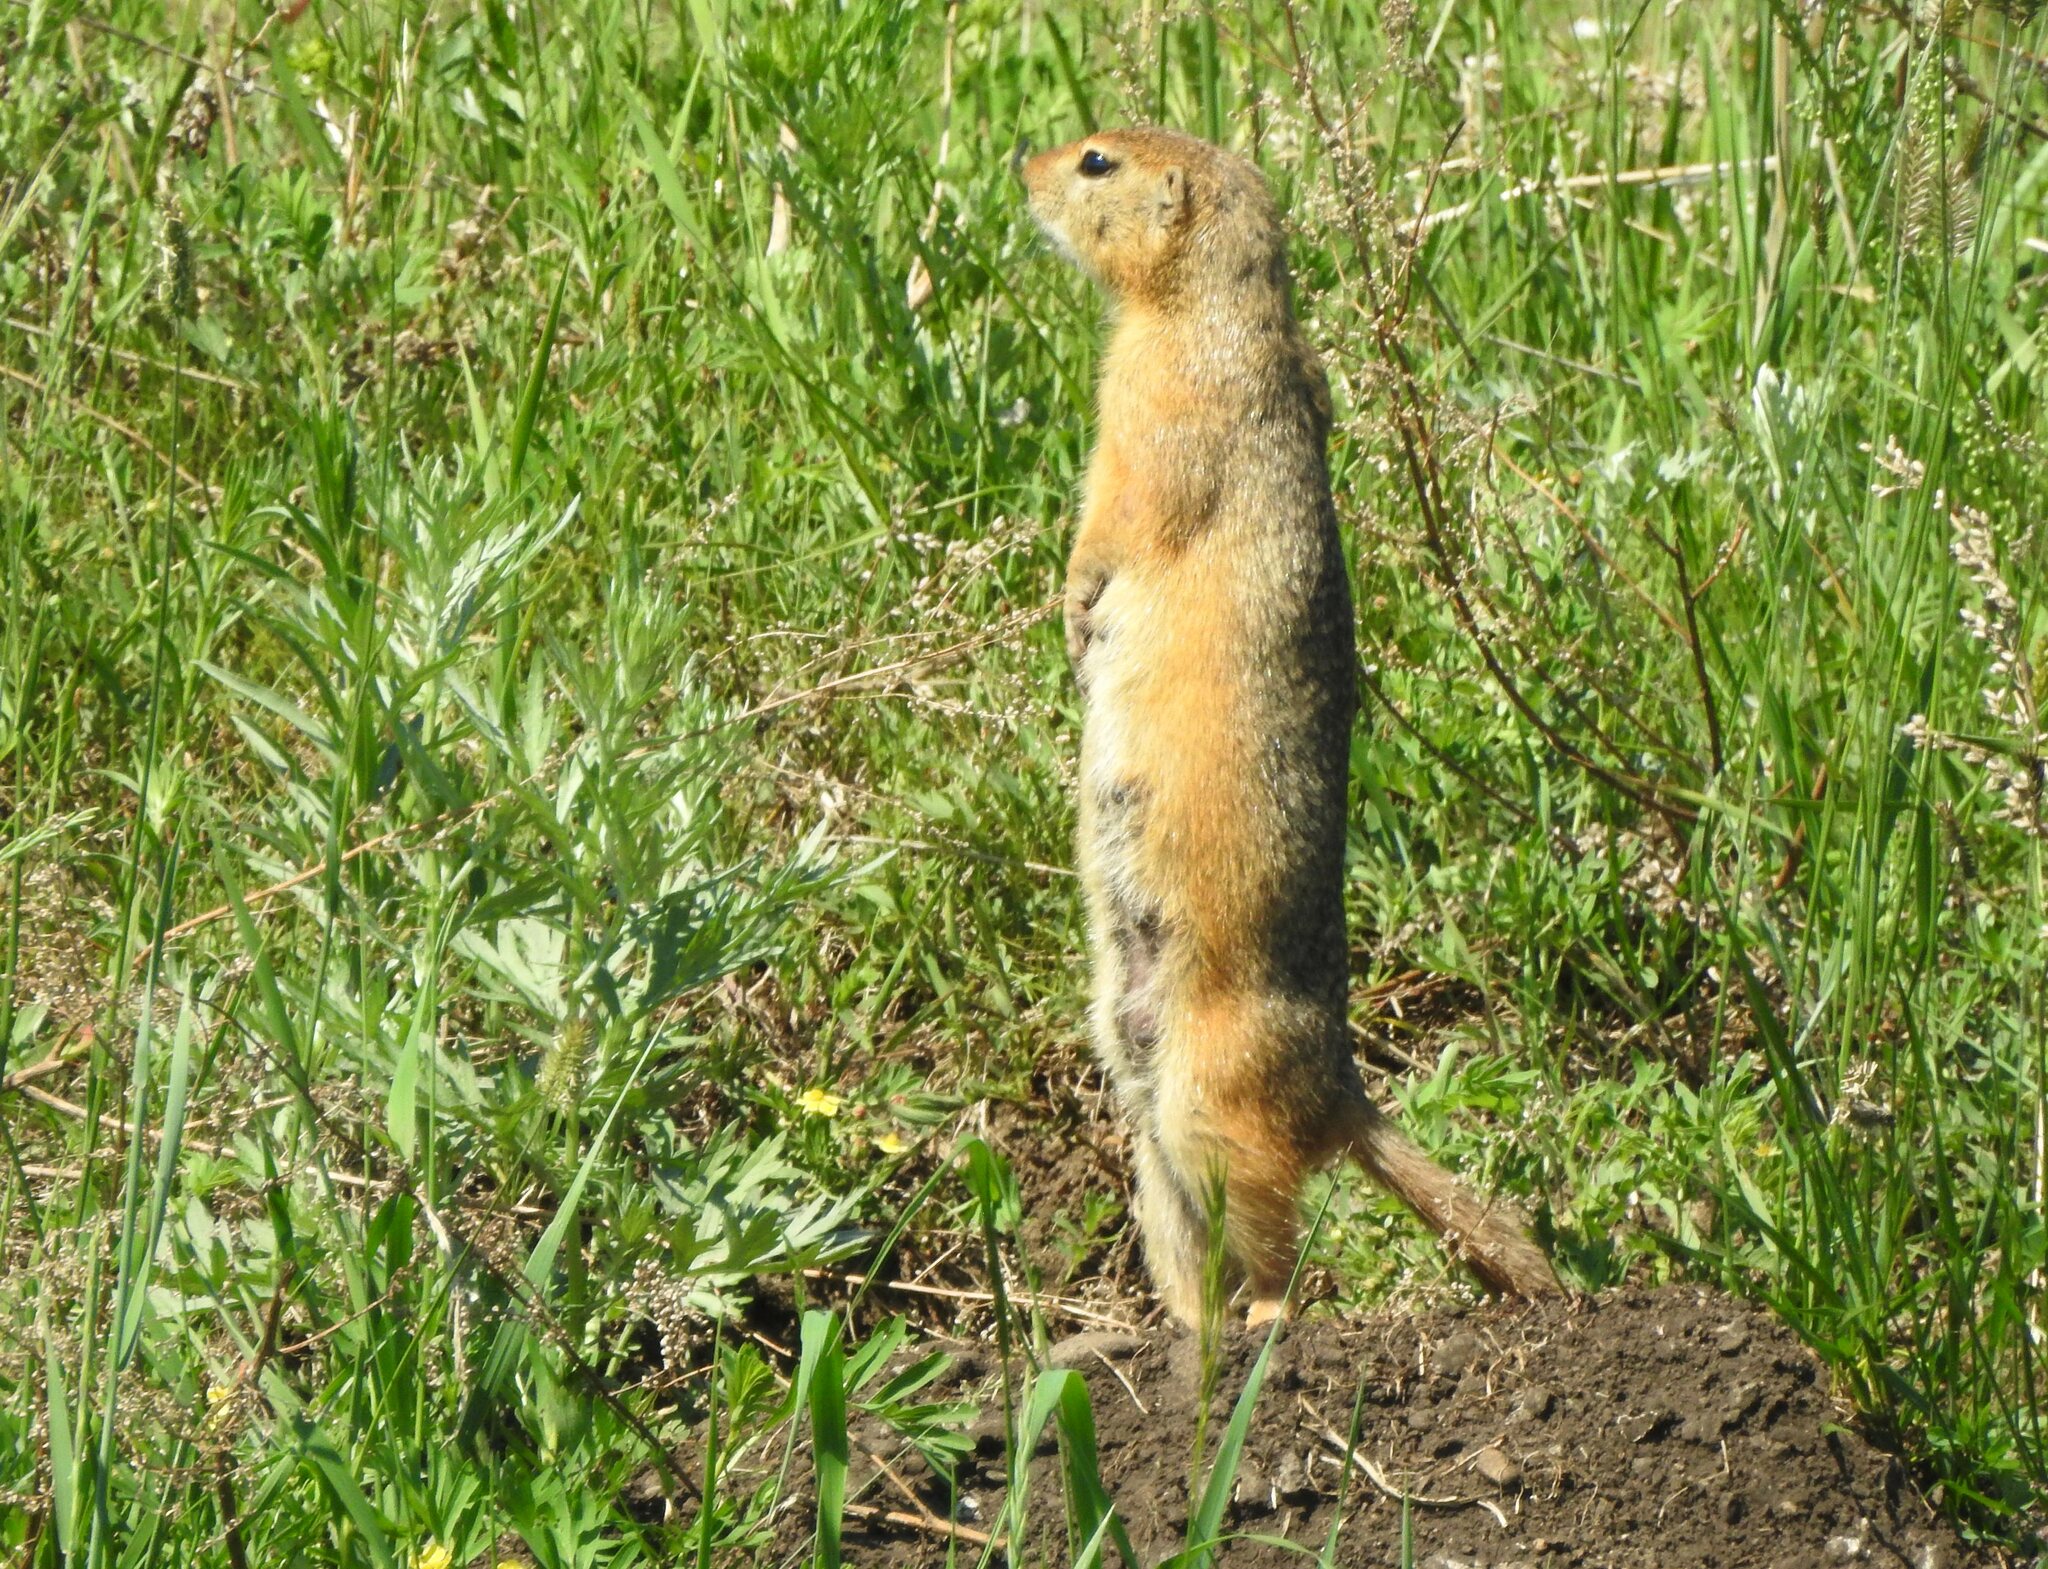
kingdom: Animalia
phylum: Chordata
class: Mammalia
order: Rodentia
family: Sciuridae
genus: Urocitellus
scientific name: Urocitellus undulatus
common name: Long-tailed ground squirrel
